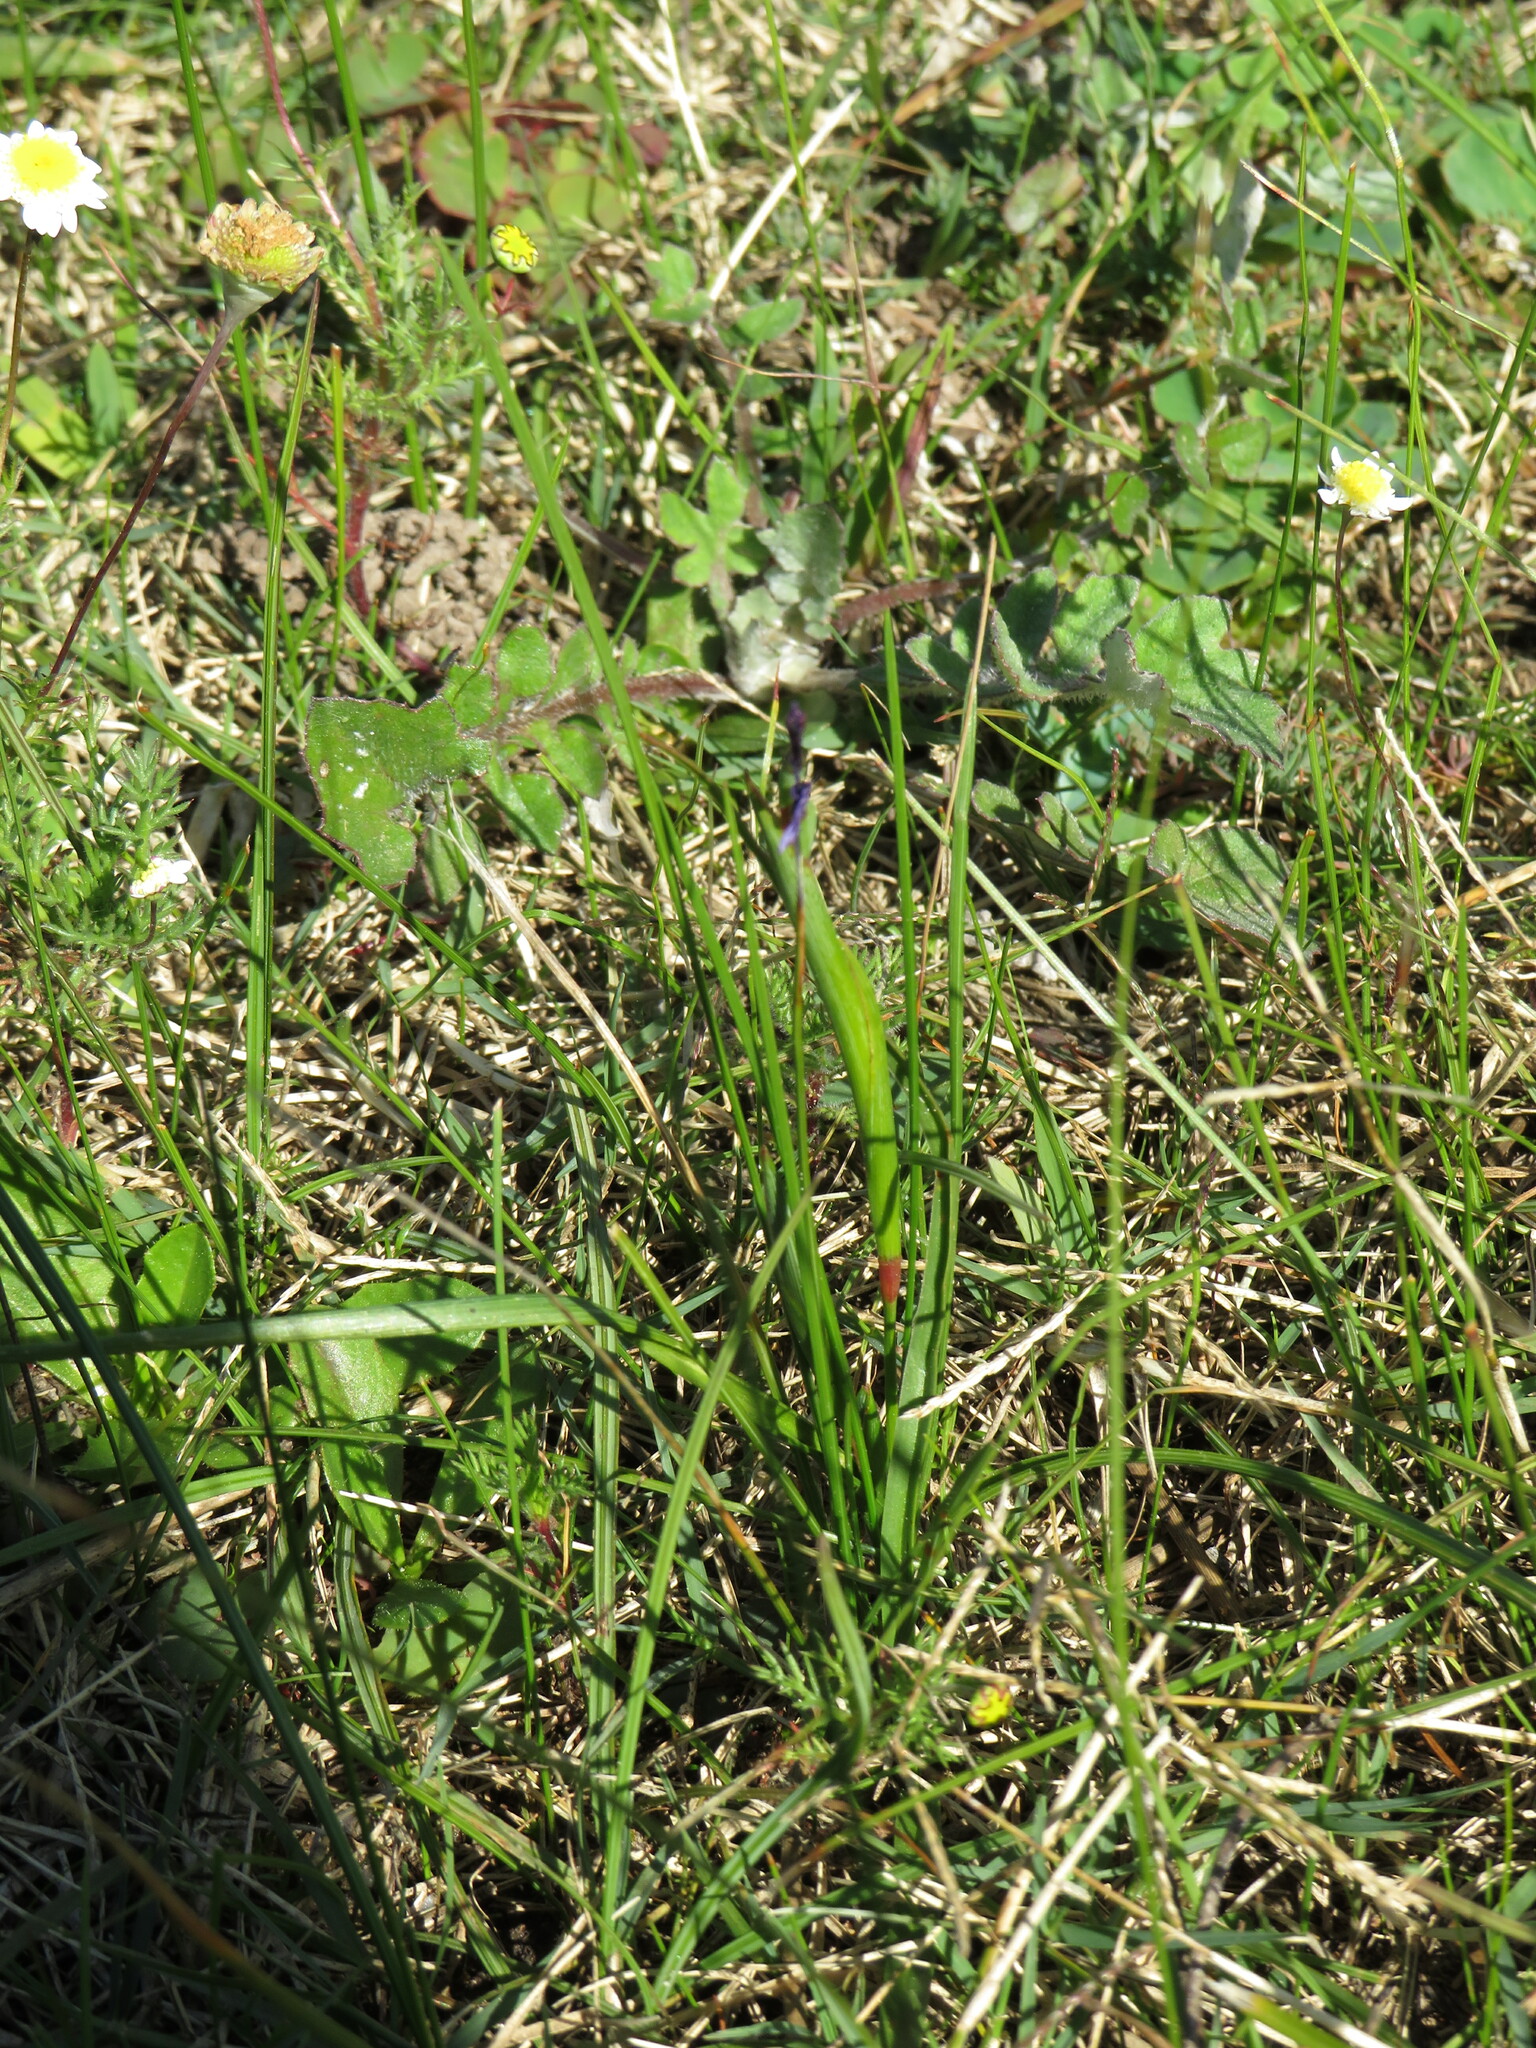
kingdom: Plantae
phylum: Tracheophyta
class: Liliopsida
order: Asparagales
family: Iridaceae
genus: Moraea
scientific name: Moraea lugubris
